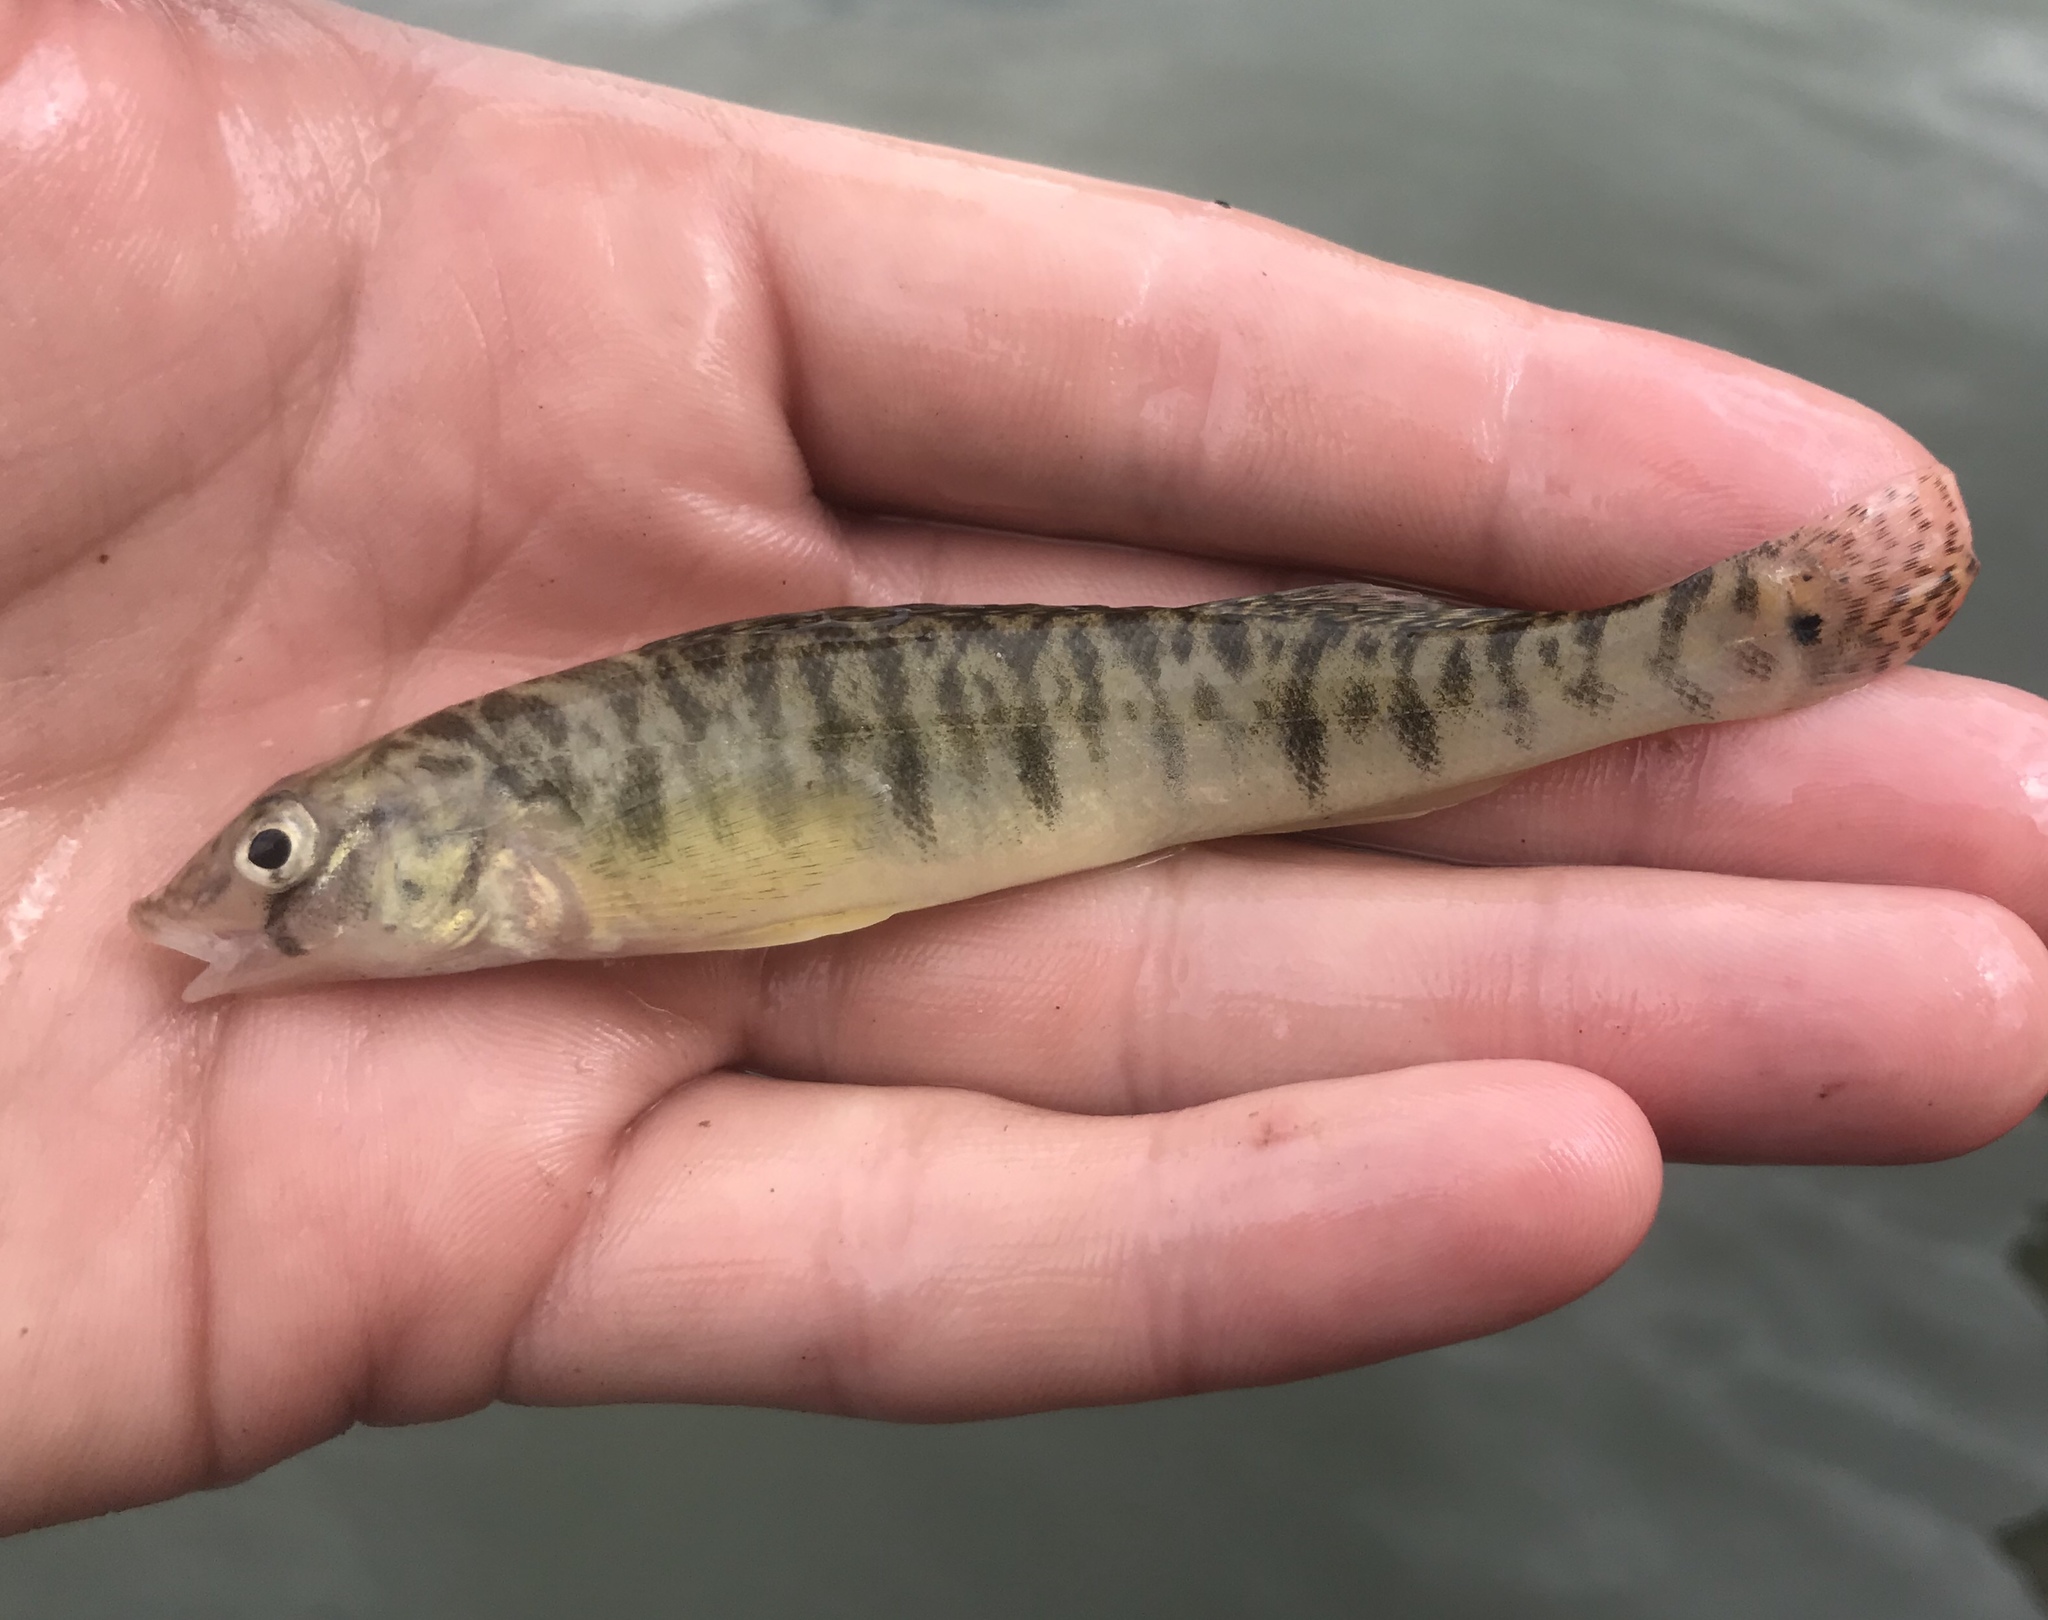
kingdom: Animalia
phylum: Chordata
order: Perciformes
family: Percidae
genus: Percina
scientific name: Percina carbonaria
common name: Texas logperch
